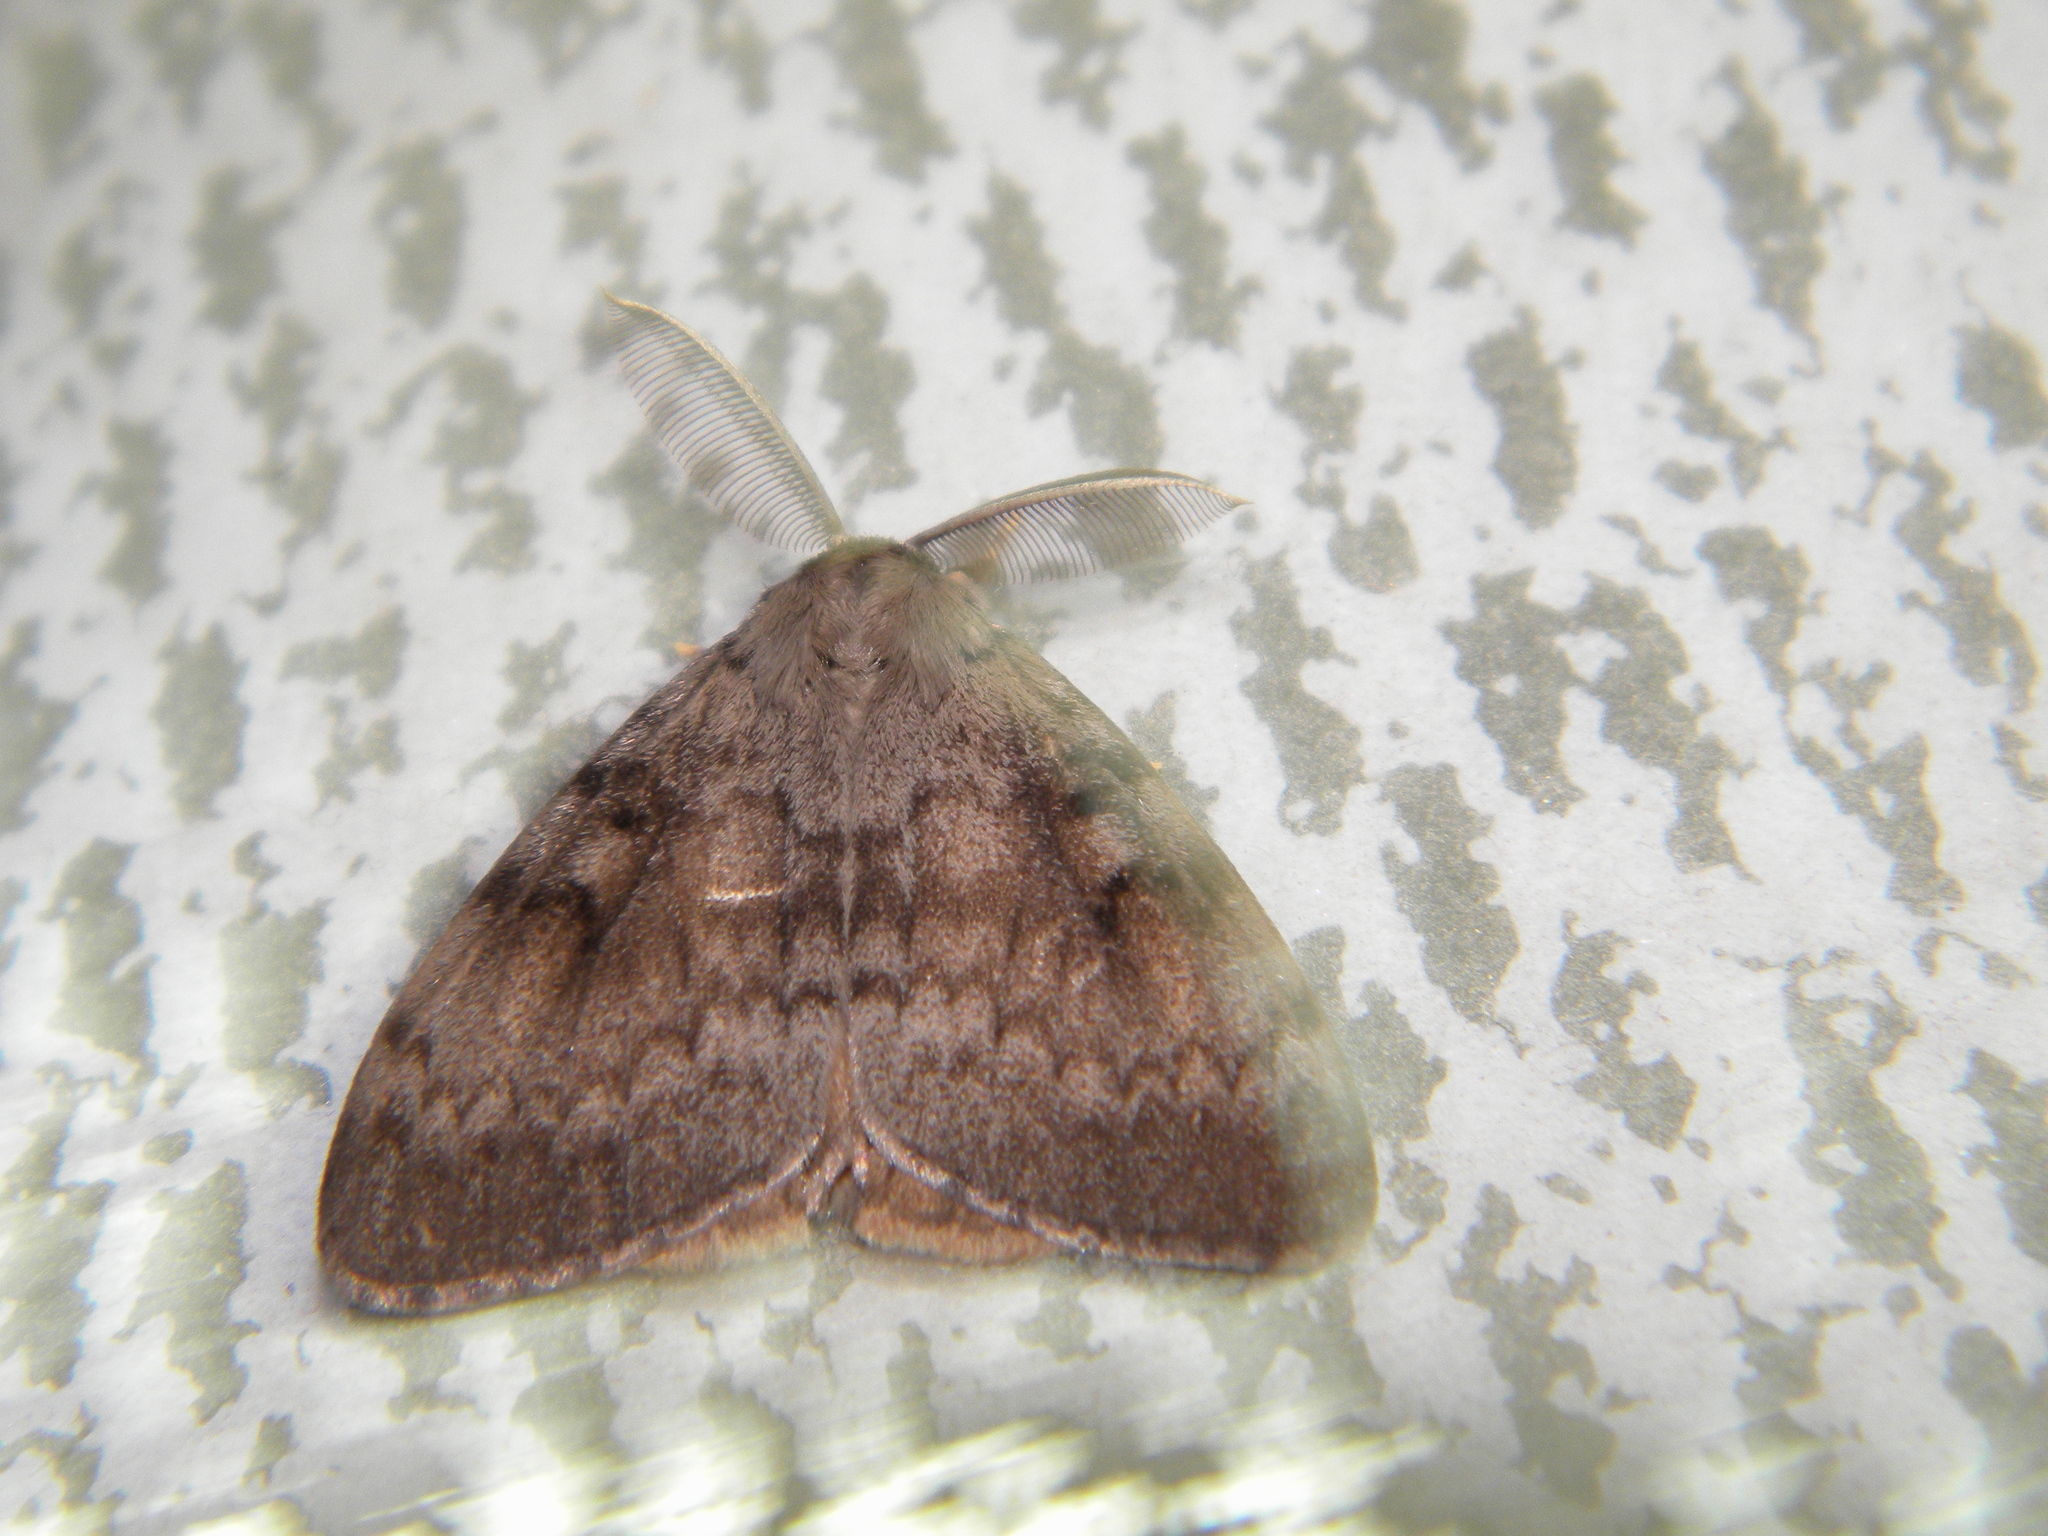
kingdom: Animalia
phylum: Arthropoda
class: Insecta
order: Lepidoptera
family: Erebidae
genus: Lymantria
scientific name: Lymantria dispar
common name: Gypsy moth
